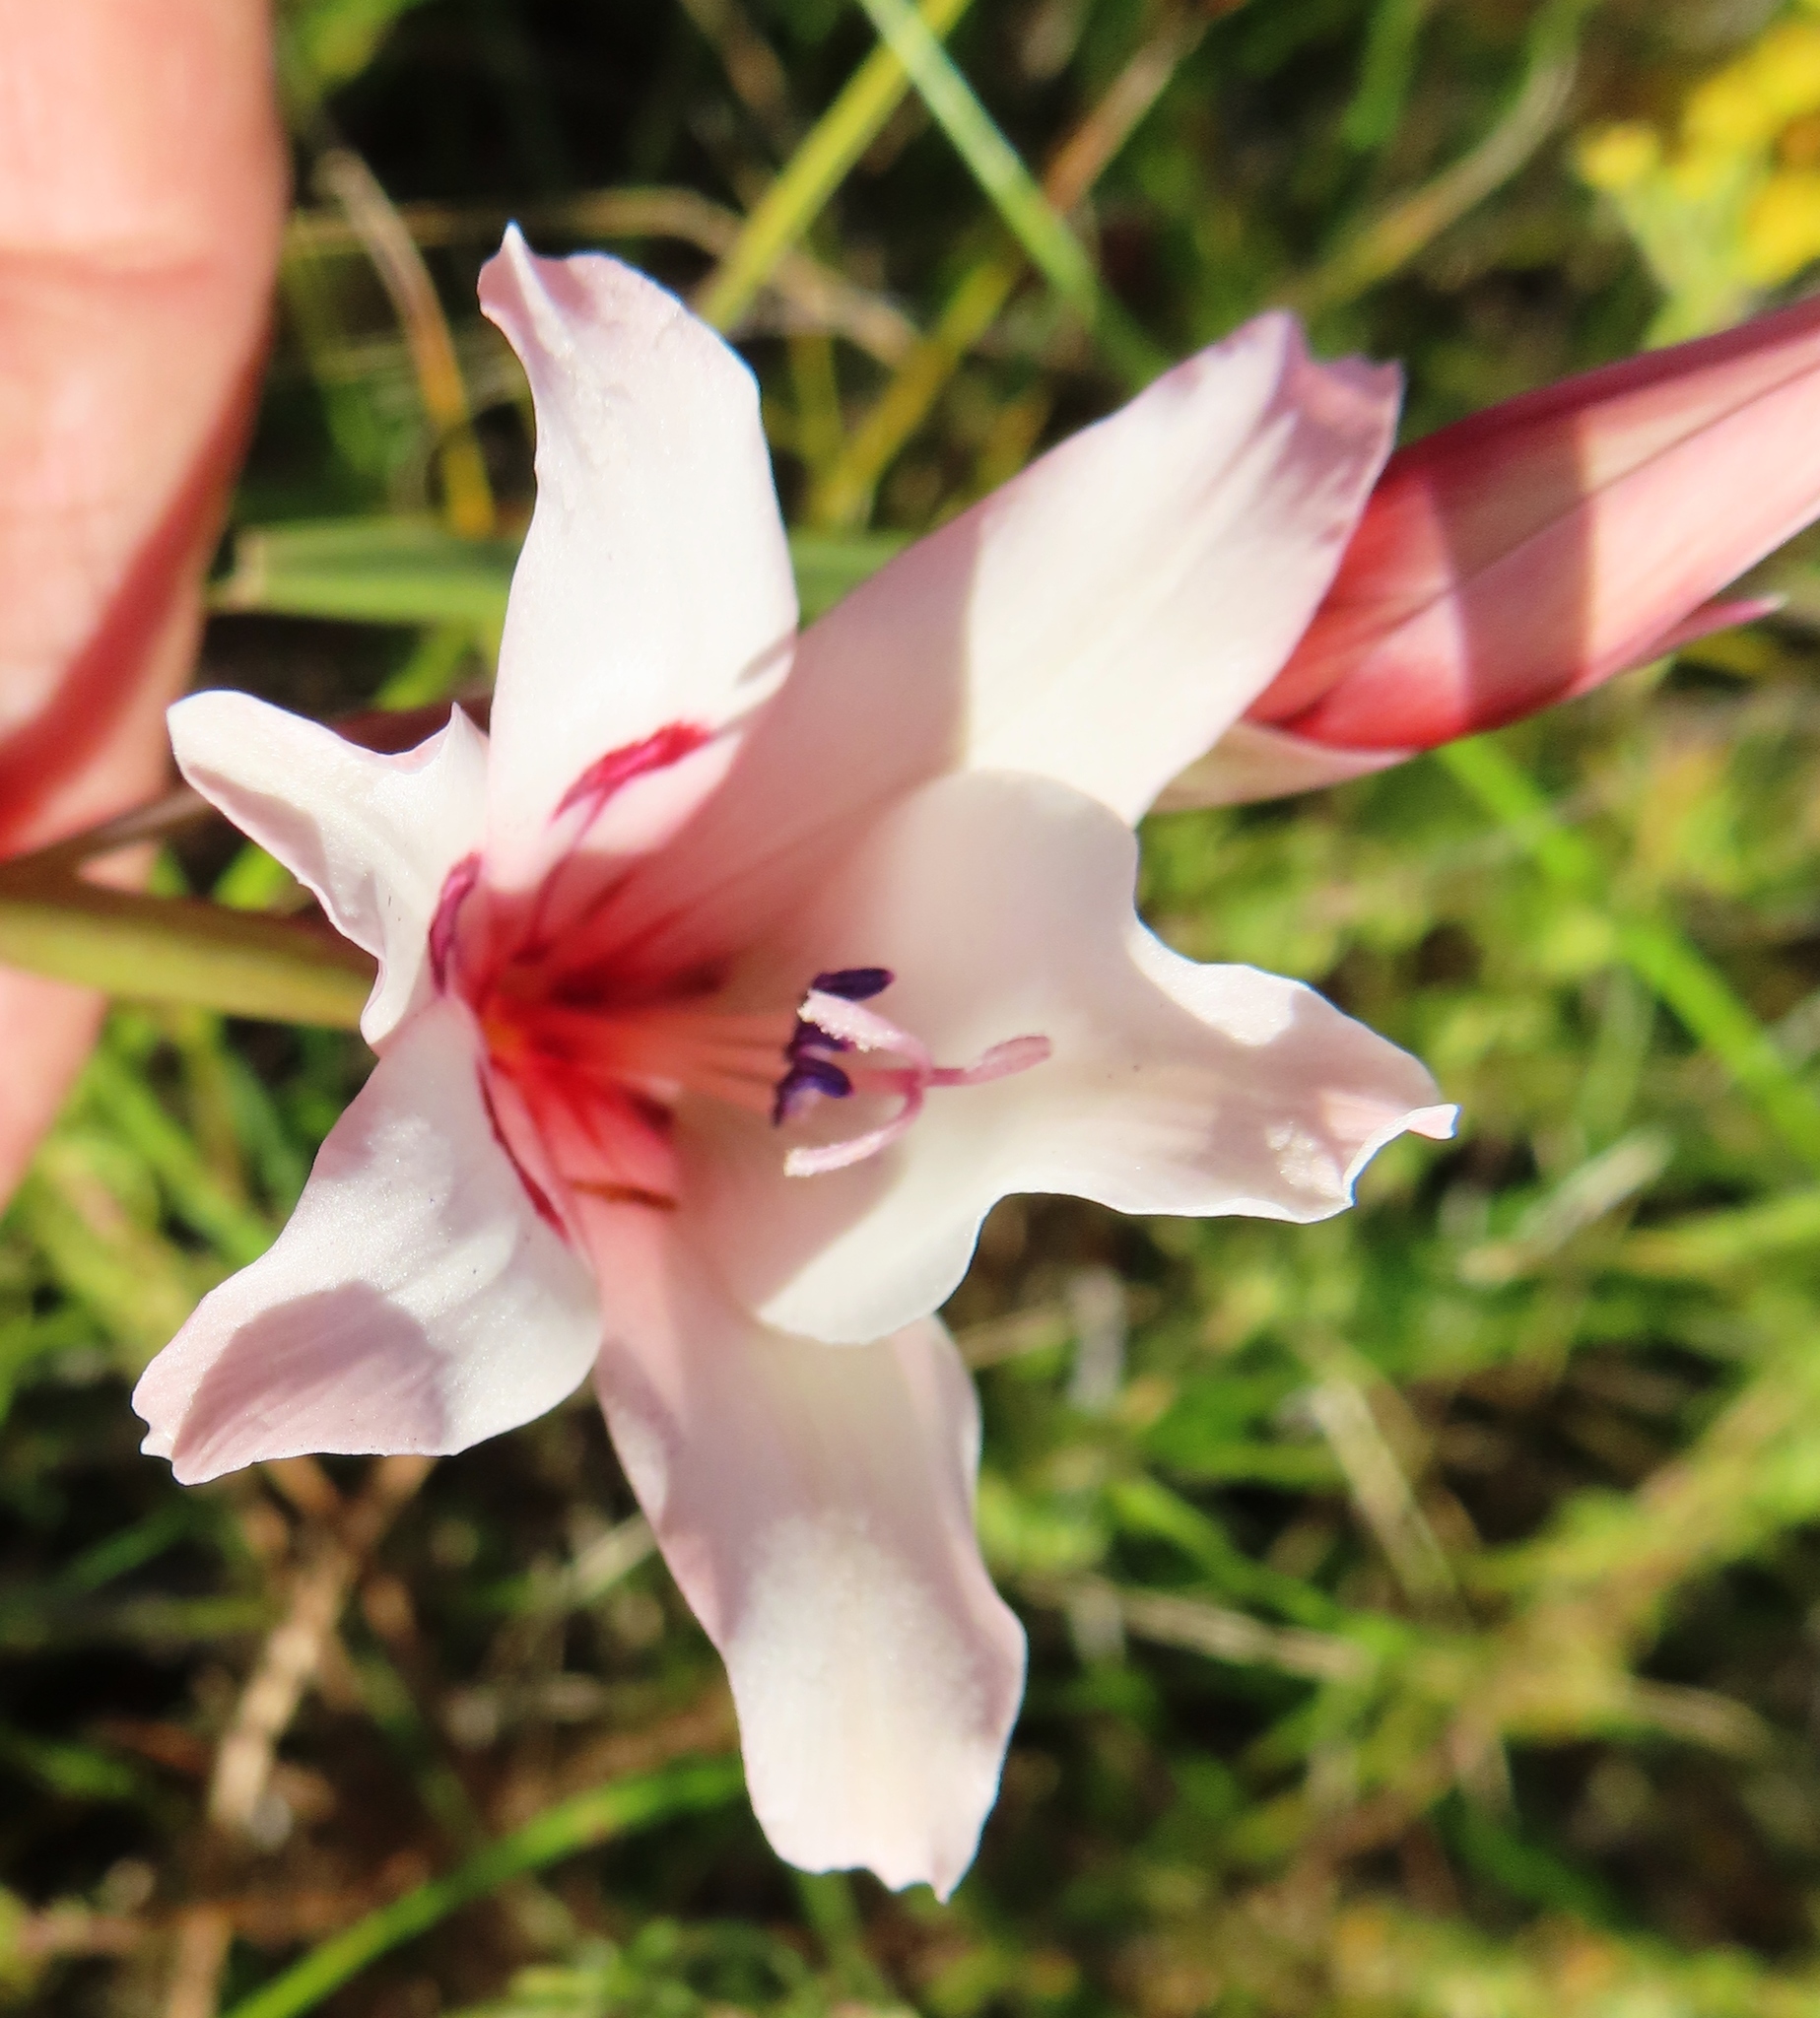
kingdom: Plantae
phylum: Tracheophyta
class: Liliopsida
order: Asparagales
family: Iridaceae
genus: Gladiolus
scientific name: Gladiolus carneus
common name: Painted-lady
